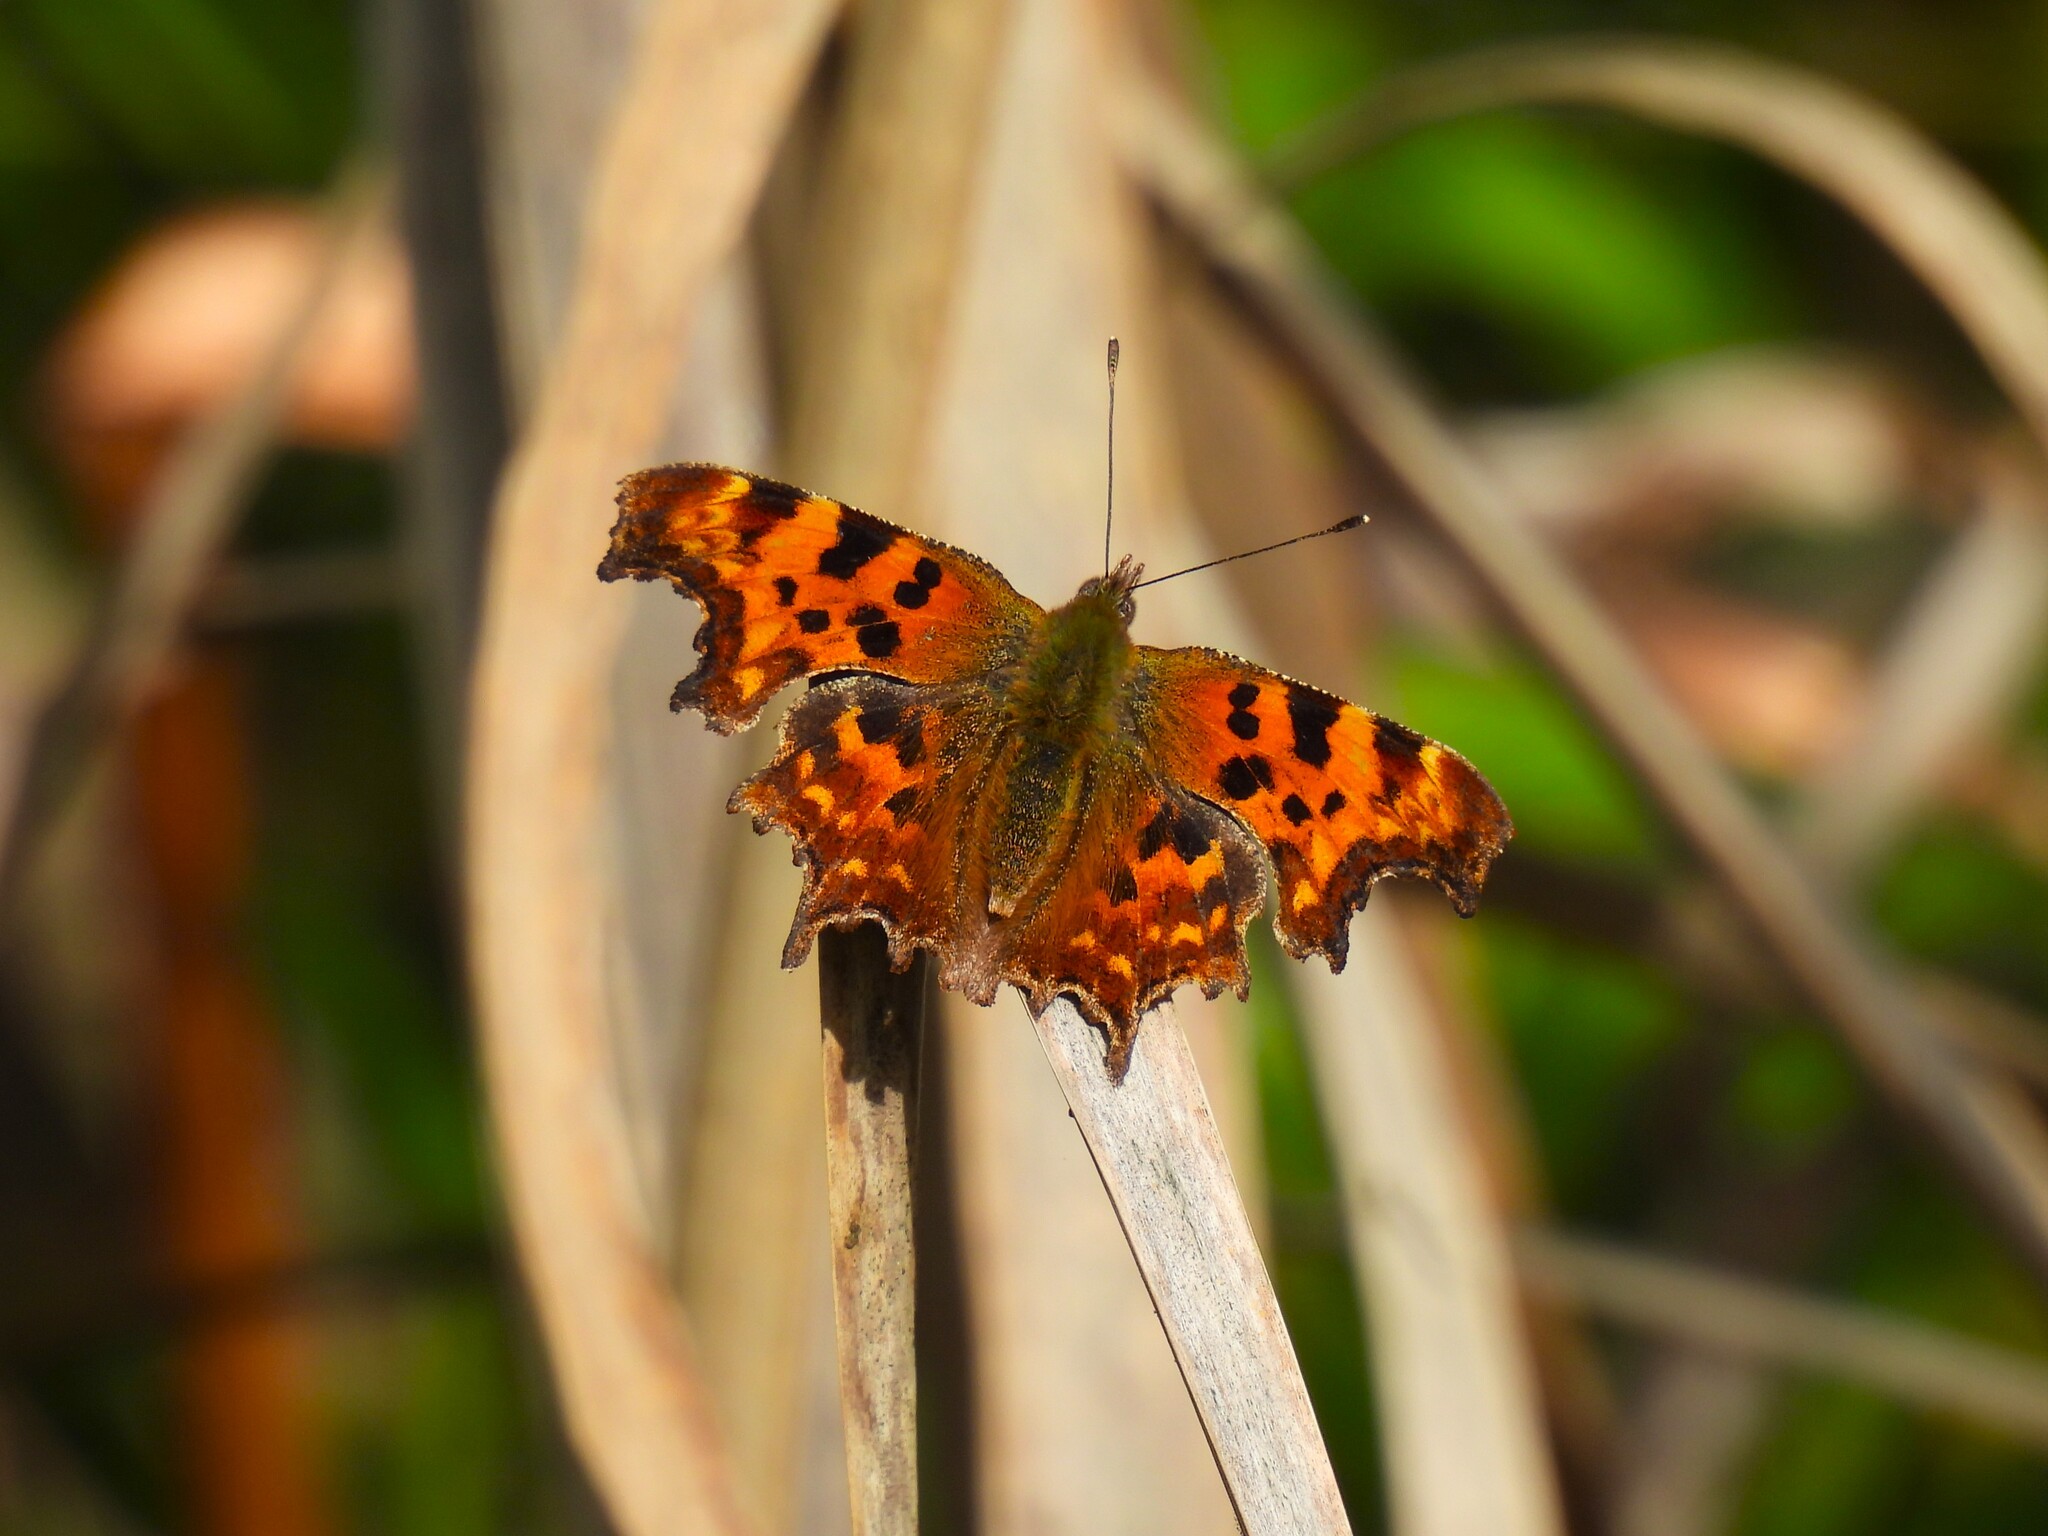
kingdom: Animalia
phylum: Arthropoda
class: Insecta
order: Lepidoptera
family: Nymphalidae
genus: Polygonia
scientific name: Polygonia c-album
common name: Comma
